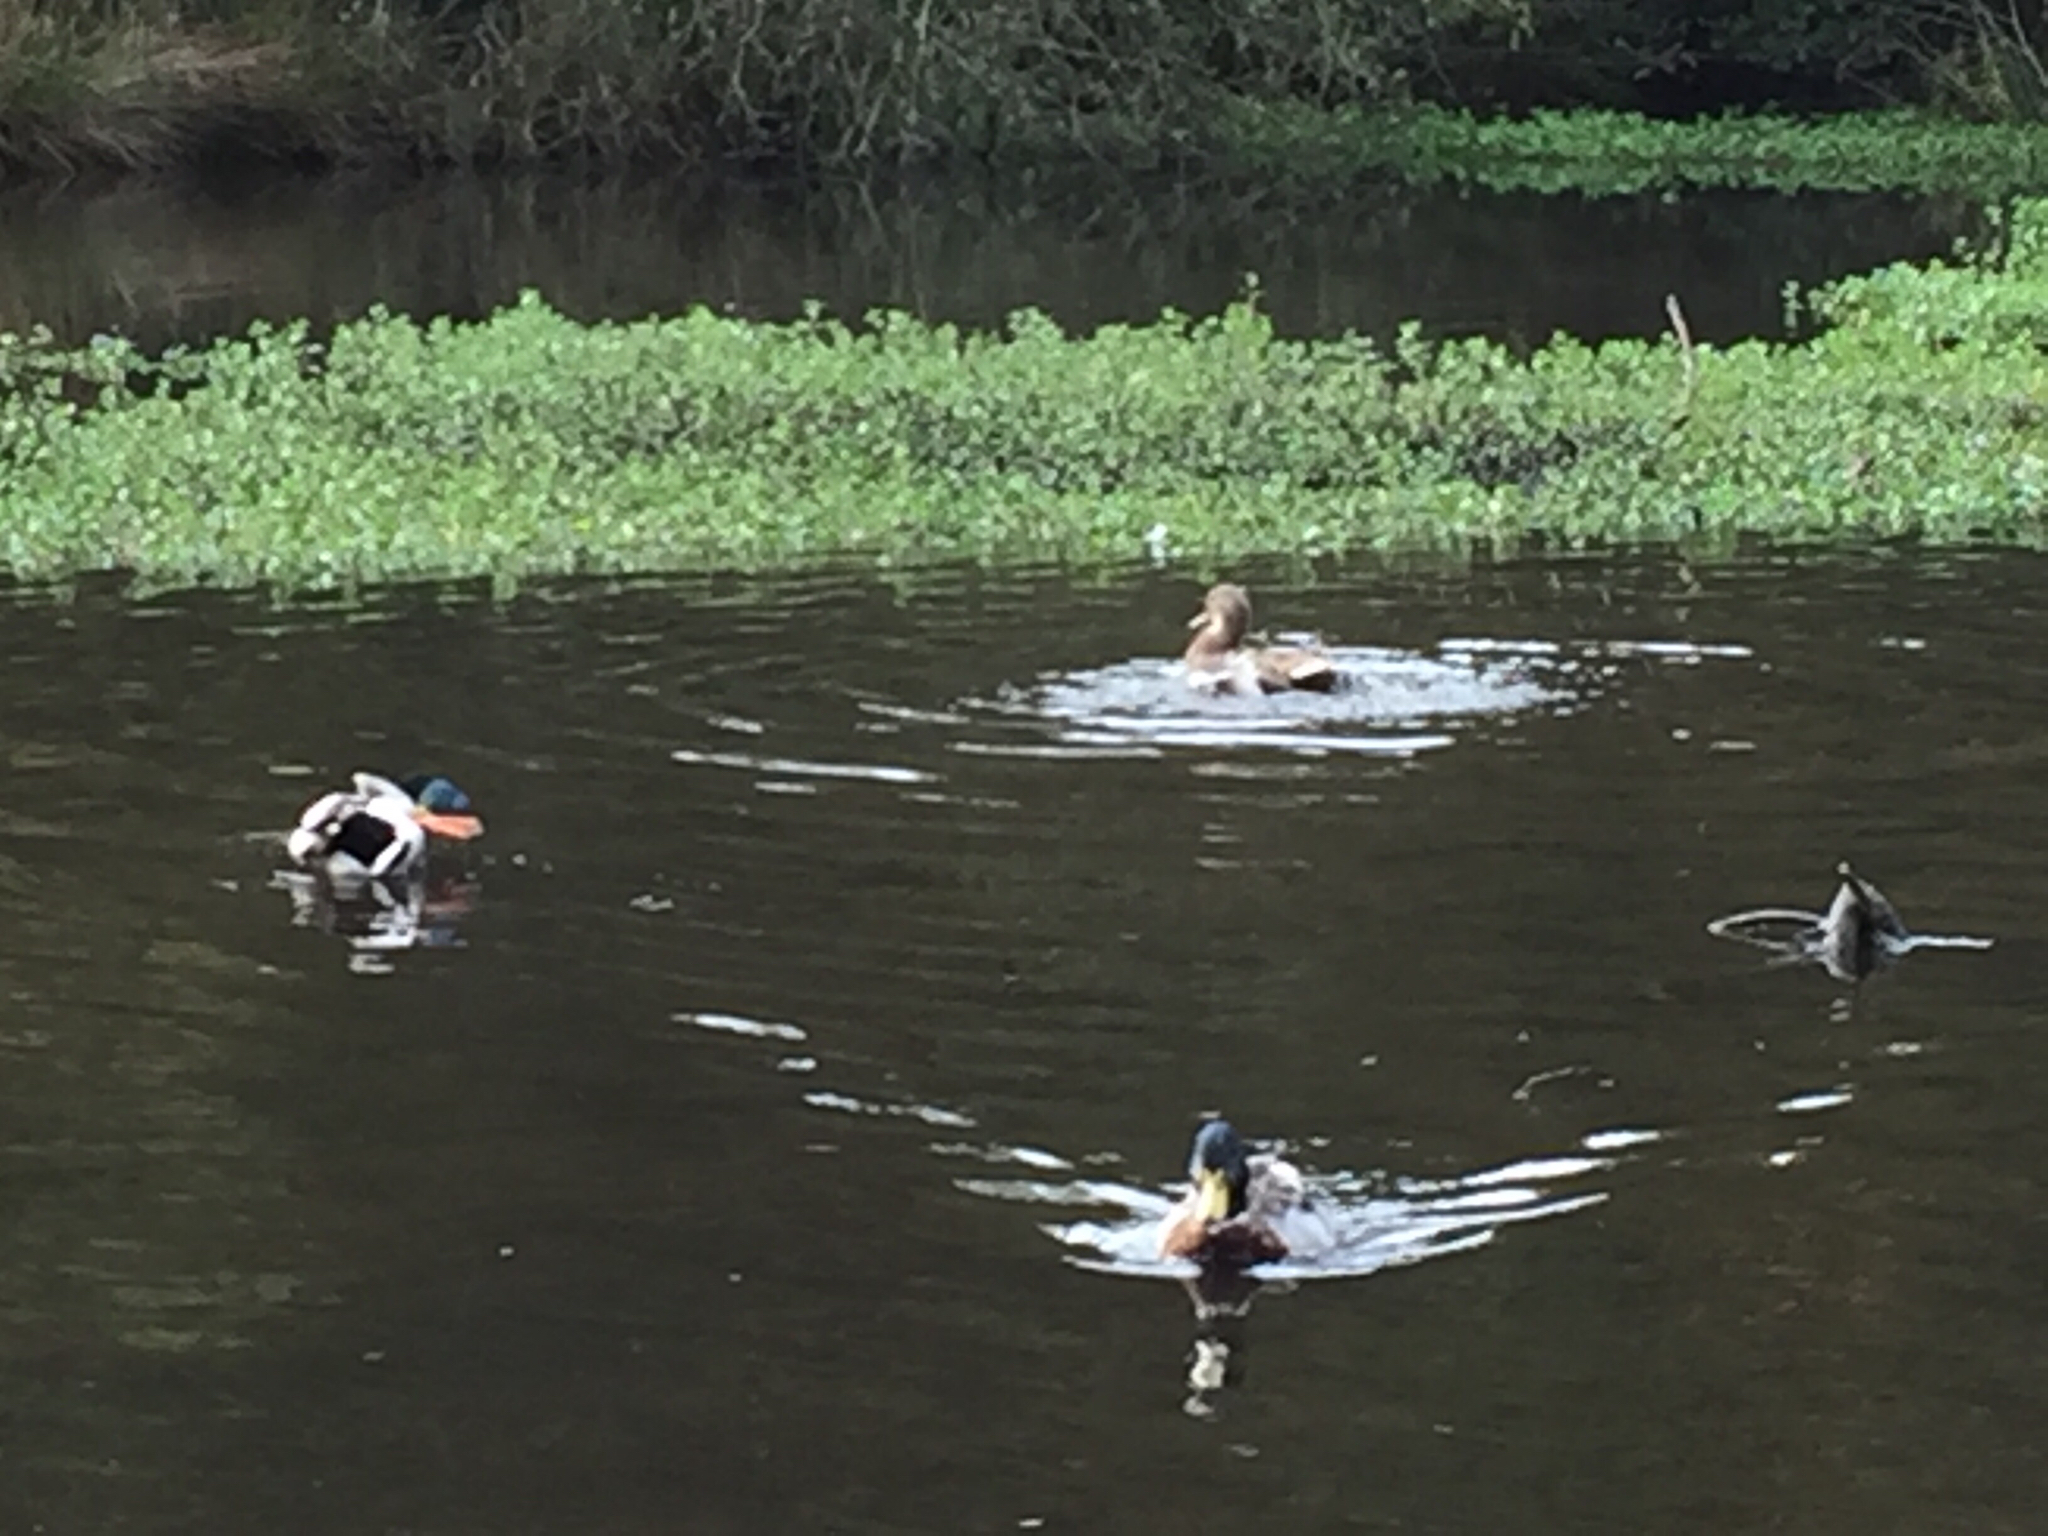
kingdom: Animalia
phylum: Chordata
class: Aves
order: Anseriformes
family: Anatidae
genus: Anas
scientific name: Anas platyrhynchos
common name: Mallard
